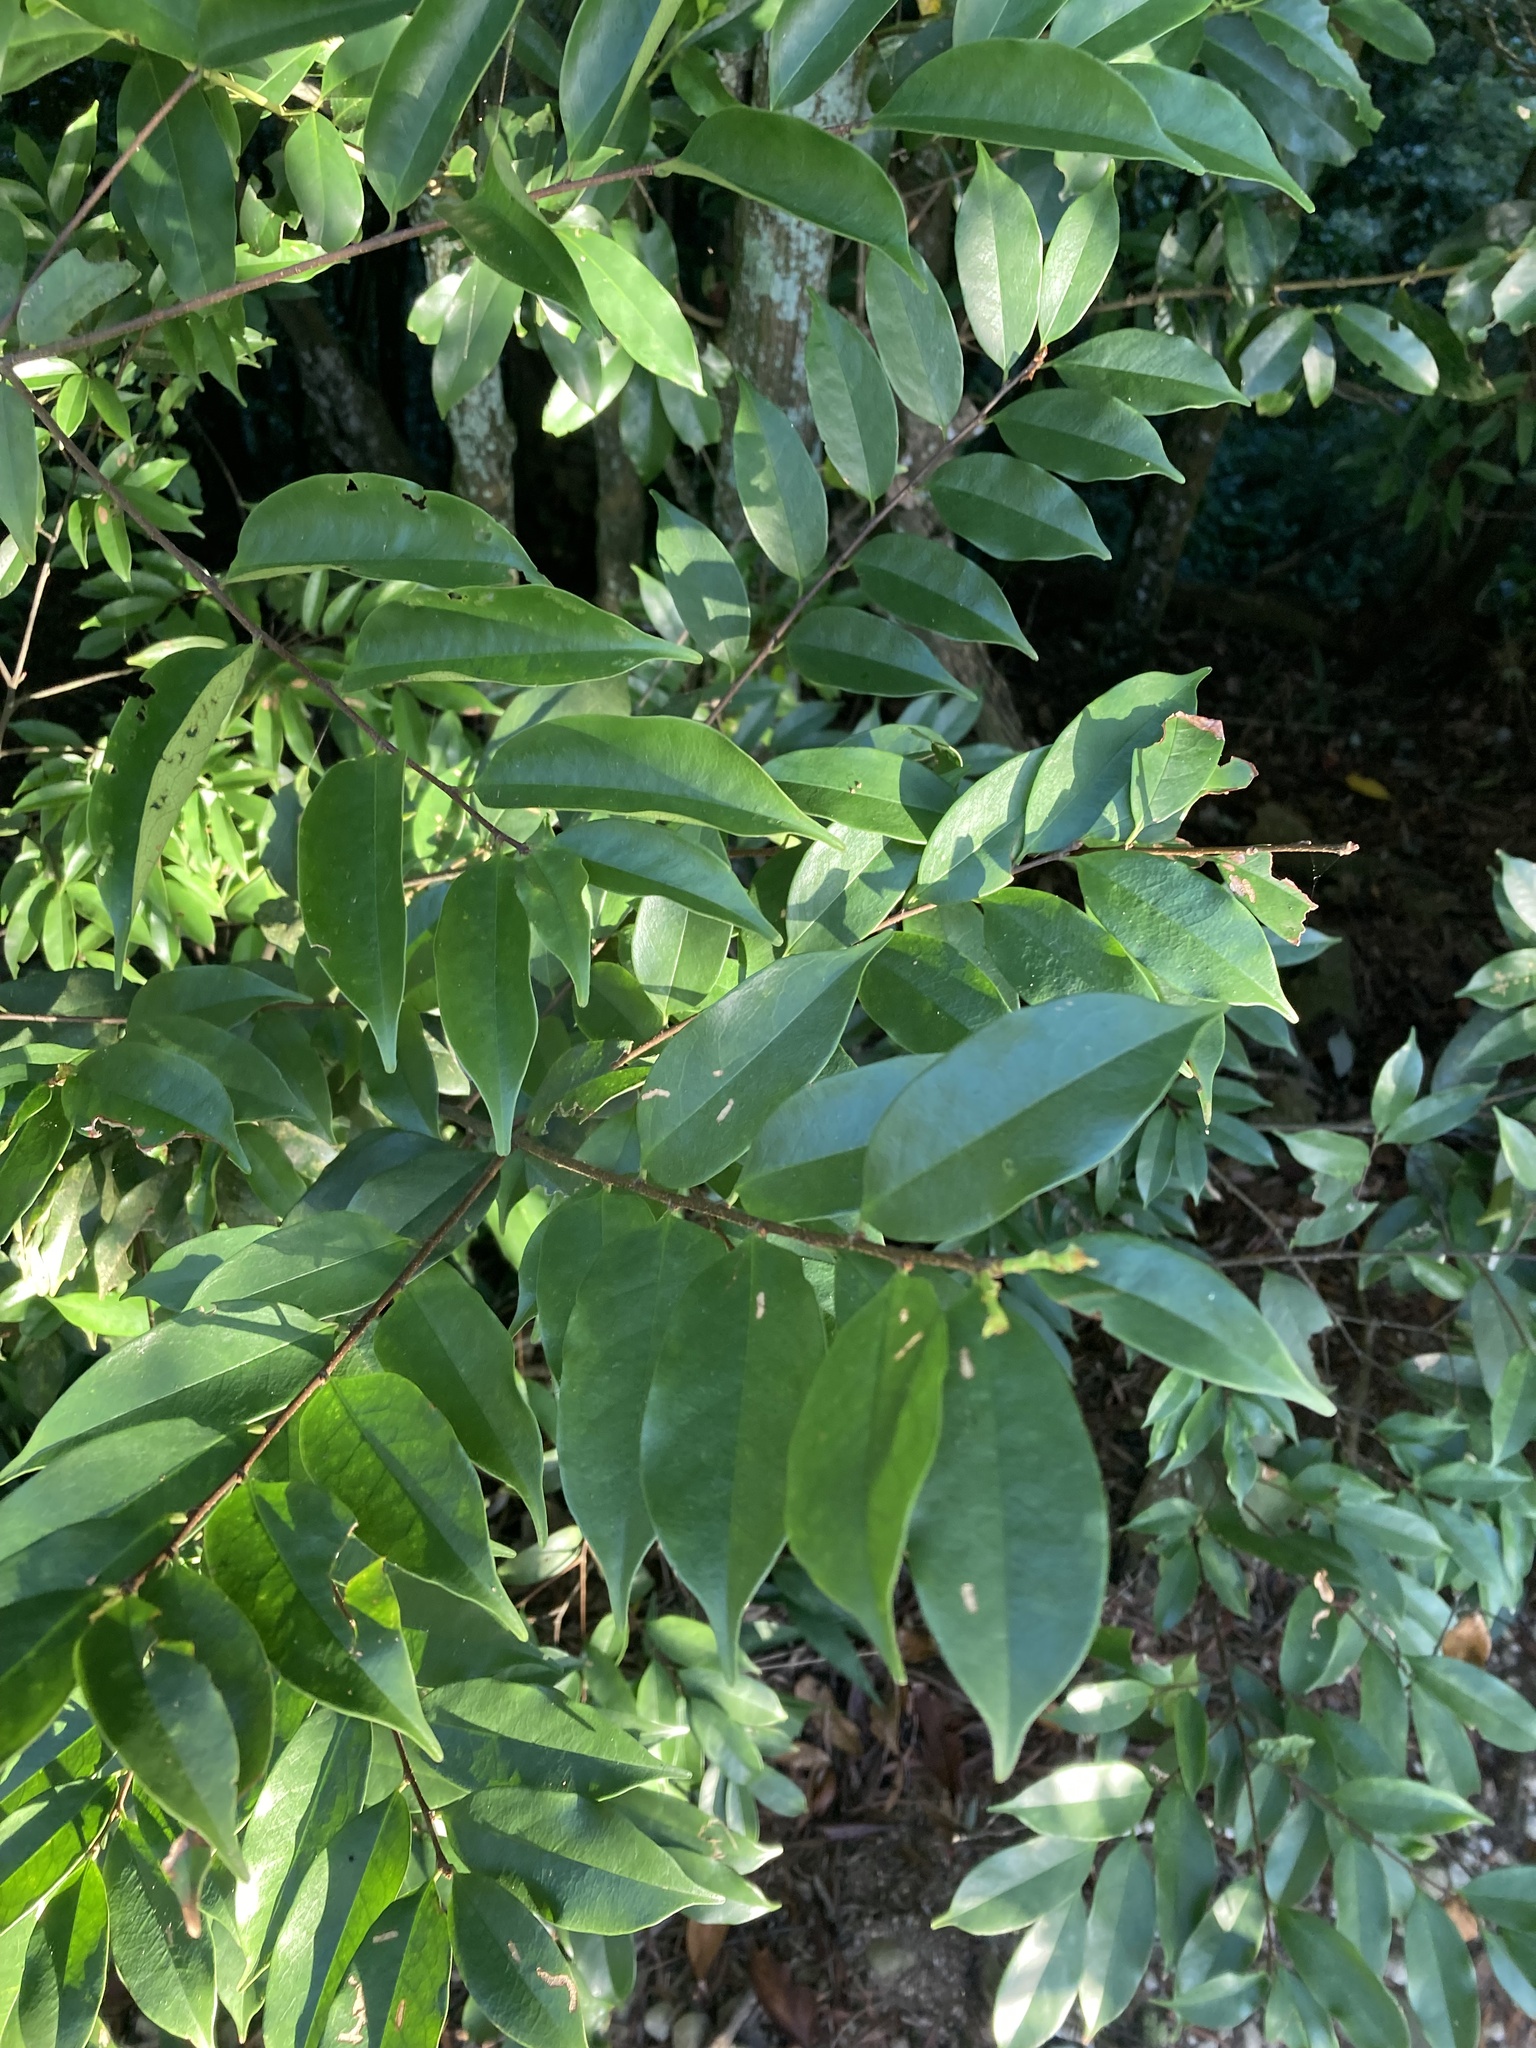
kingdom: Plantae
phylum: Tracheophyta
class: Magnoliopsida
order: Rosales
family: Rosaceae
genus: Prunus
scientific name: Prunus phaeosticta
